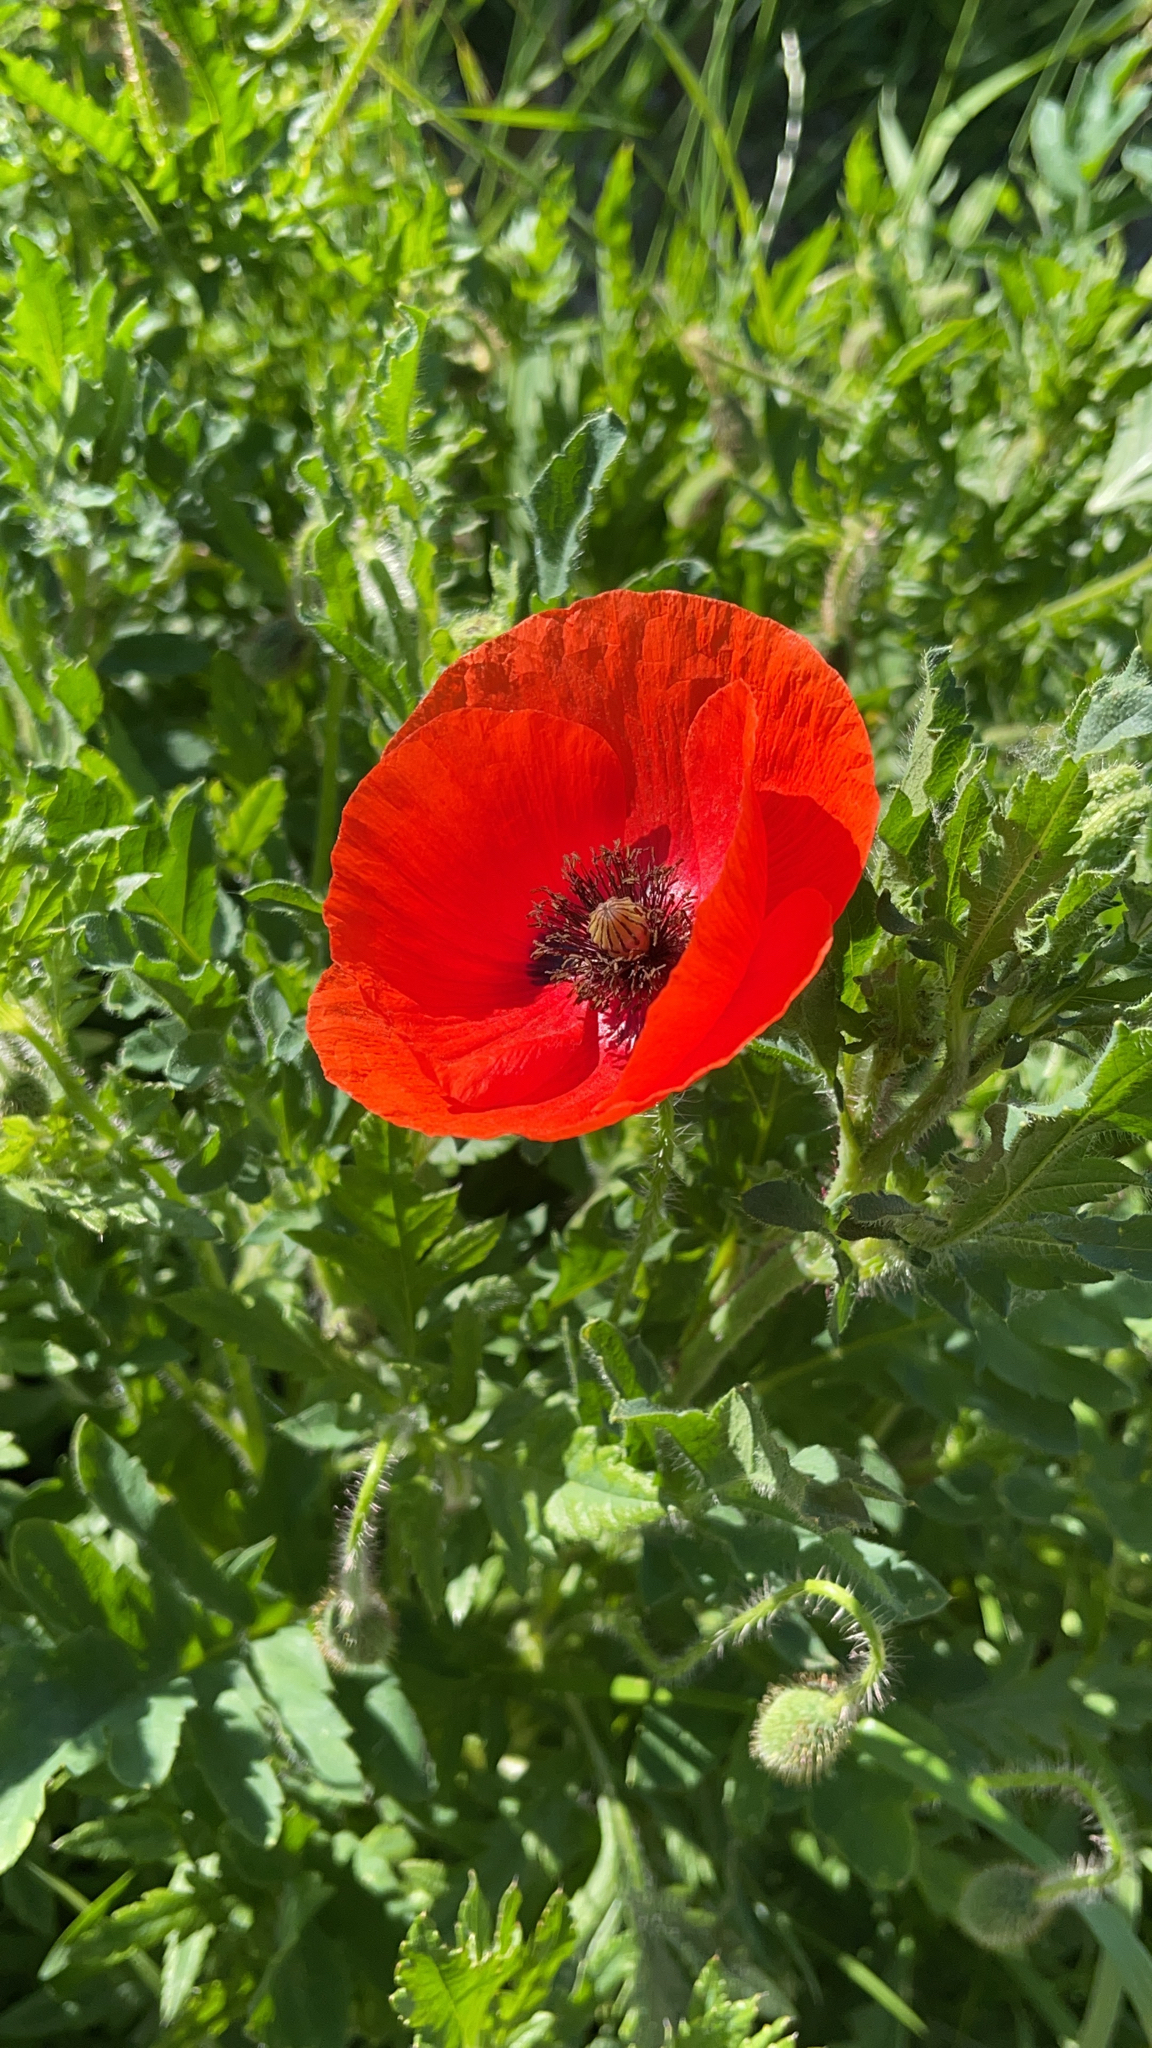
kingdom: Plantae
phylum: Tracheophyta
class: Magnoliopsida
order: Ranunculales
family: Papaveraceae
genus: Papaver
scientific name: Papaver rhoeas
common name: Corn poppy
